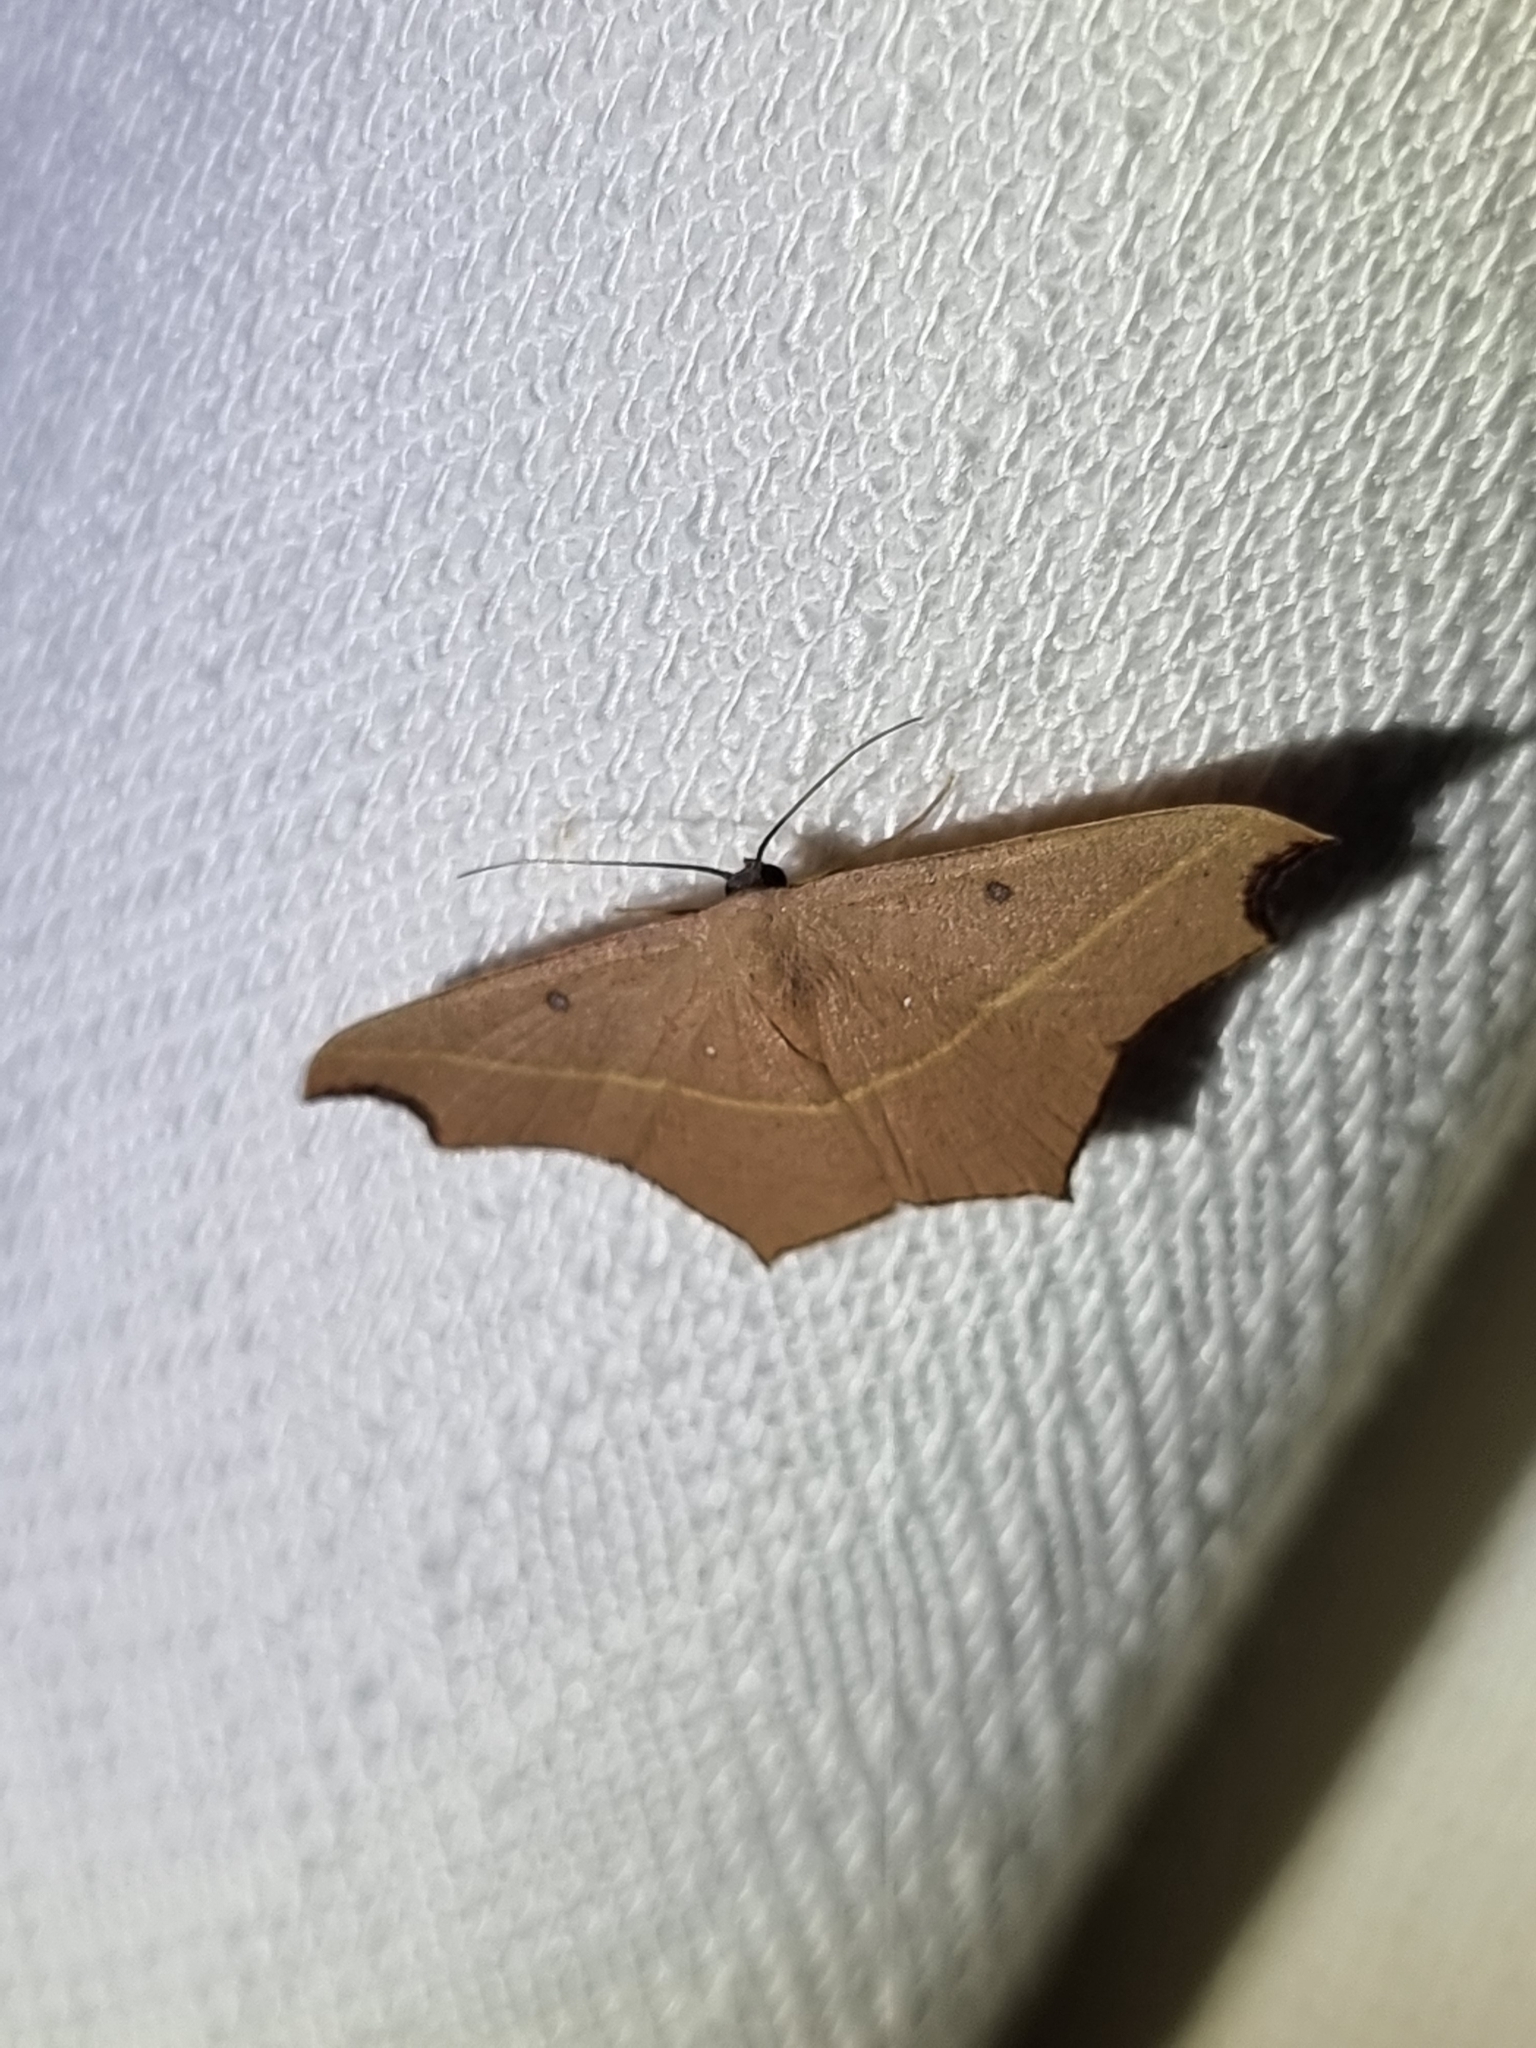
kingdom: Animalia
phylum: Arthropoda
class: Insecta
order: Lepidoptera
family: Geometridae
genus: Traminda
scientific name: Traminda aventiaria
